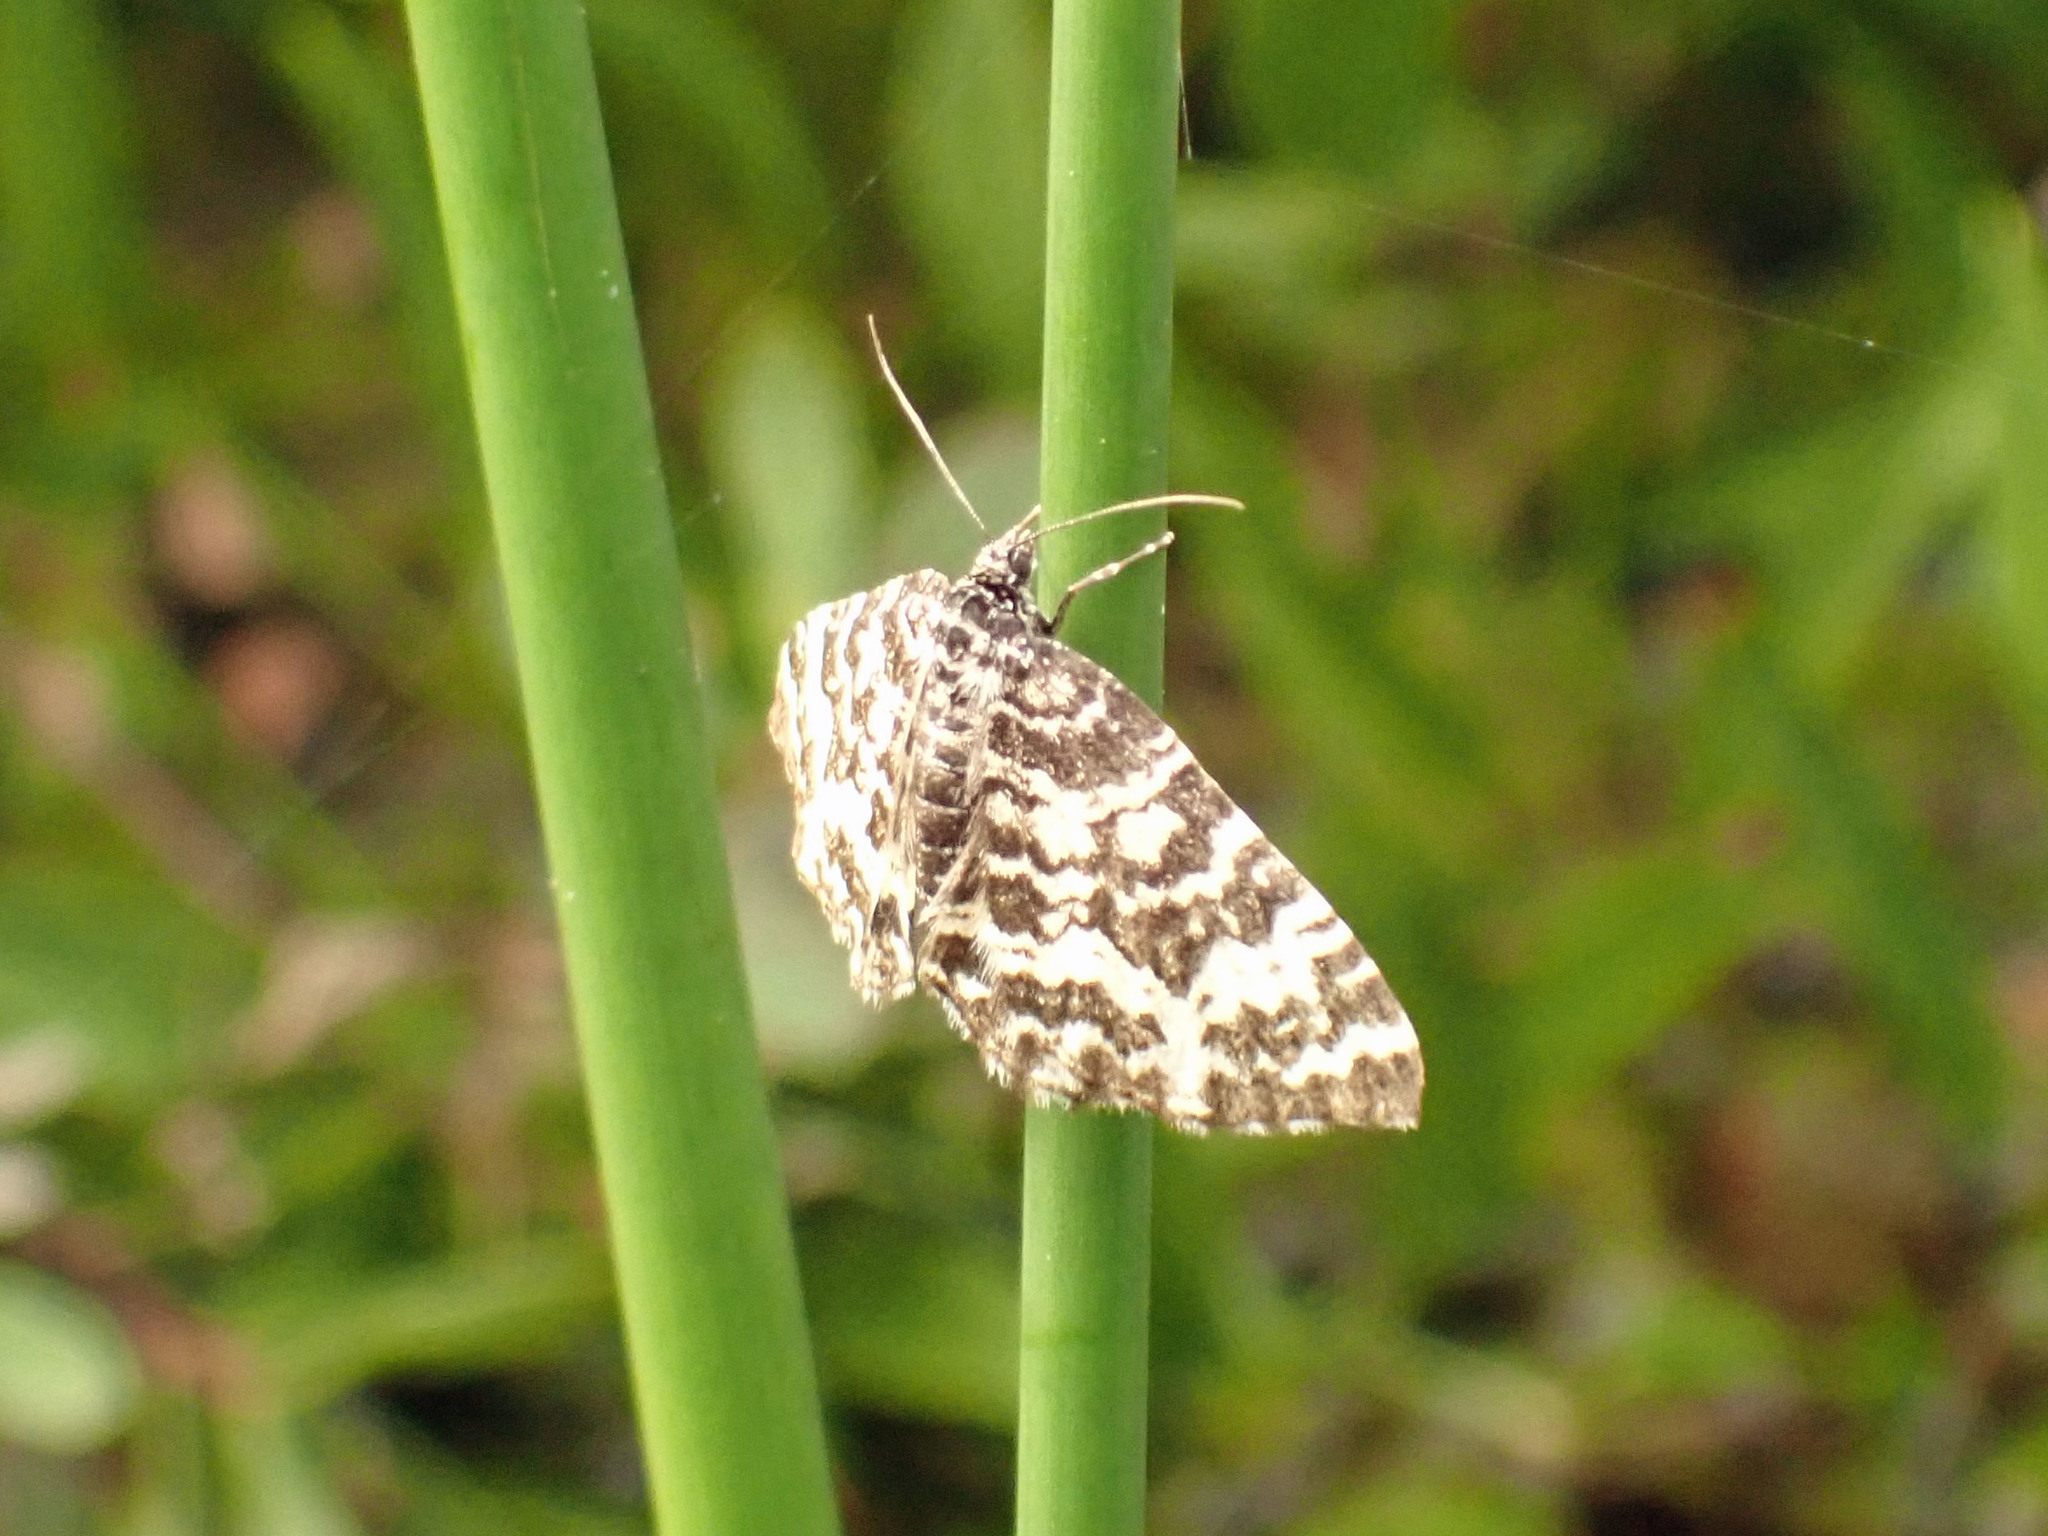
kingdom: Animalia
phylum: Arthropoda
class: Insecta
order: Lepidoptera
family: Geometridae
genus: Rheumaptera
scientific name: Rheumaptera
